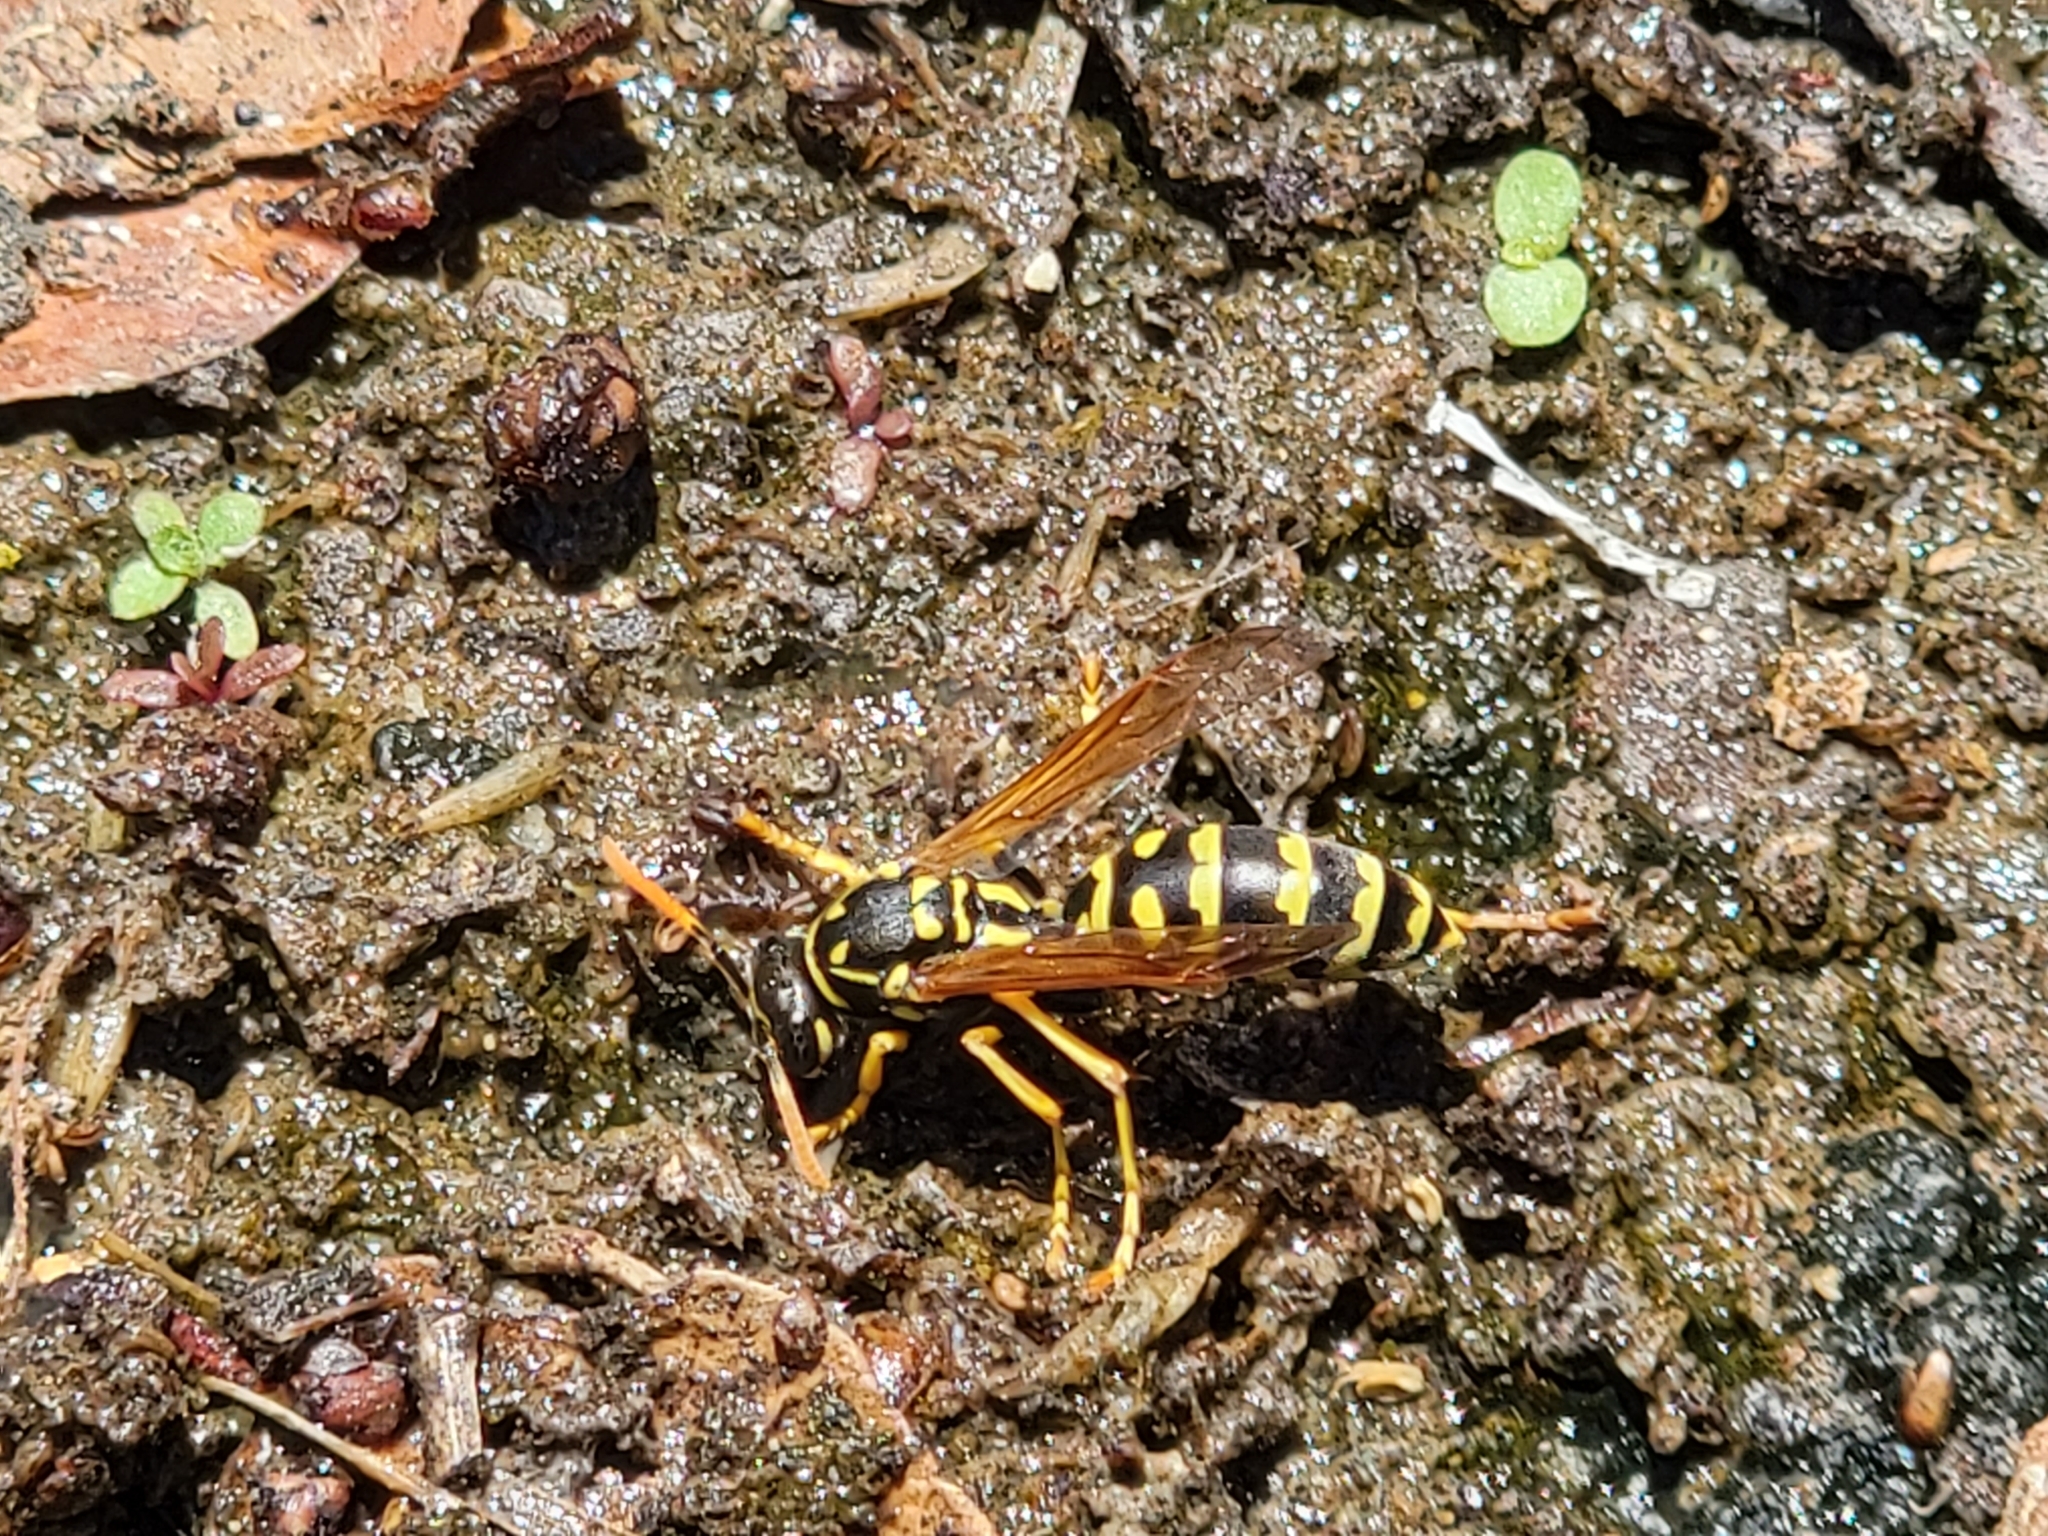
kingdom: Animalia
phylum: Arthropoda
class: Insecta
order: Hymenoptera
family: Eumenidae
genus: Polistes
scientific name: Polistes dominula
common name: Paper wasp
